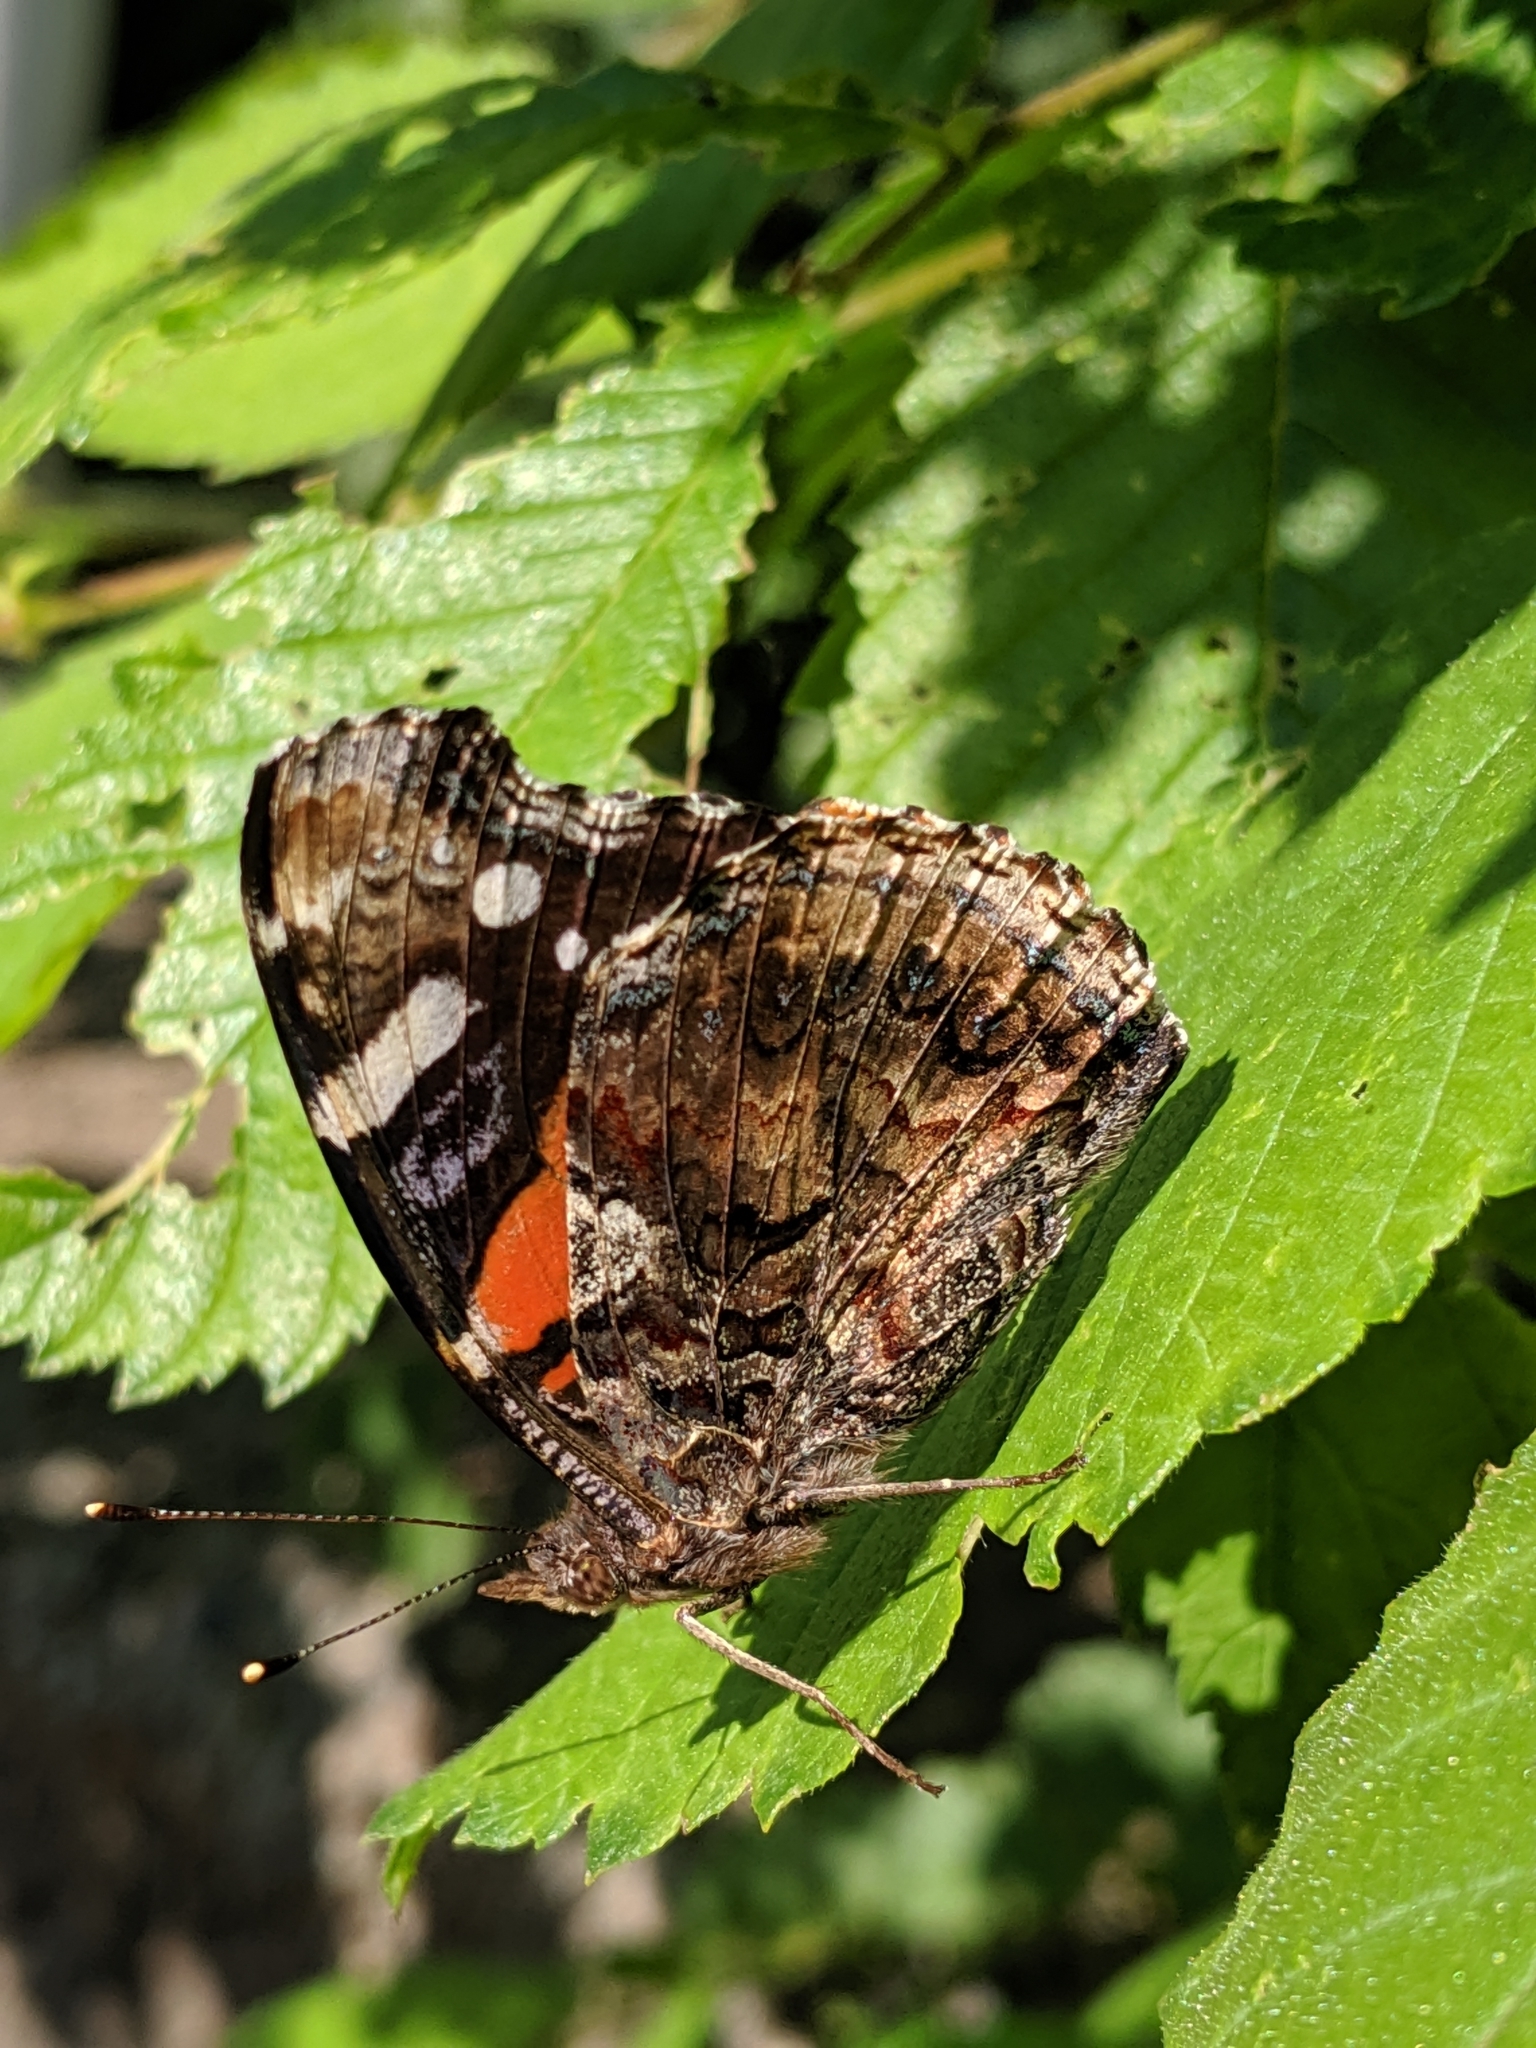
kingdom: Animalia
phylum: Arthropoda
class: Insecta
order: Lepidoptera
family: Nymphalidae
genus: Vanessa
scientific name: Vanessa atalanta
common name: Red admiral
